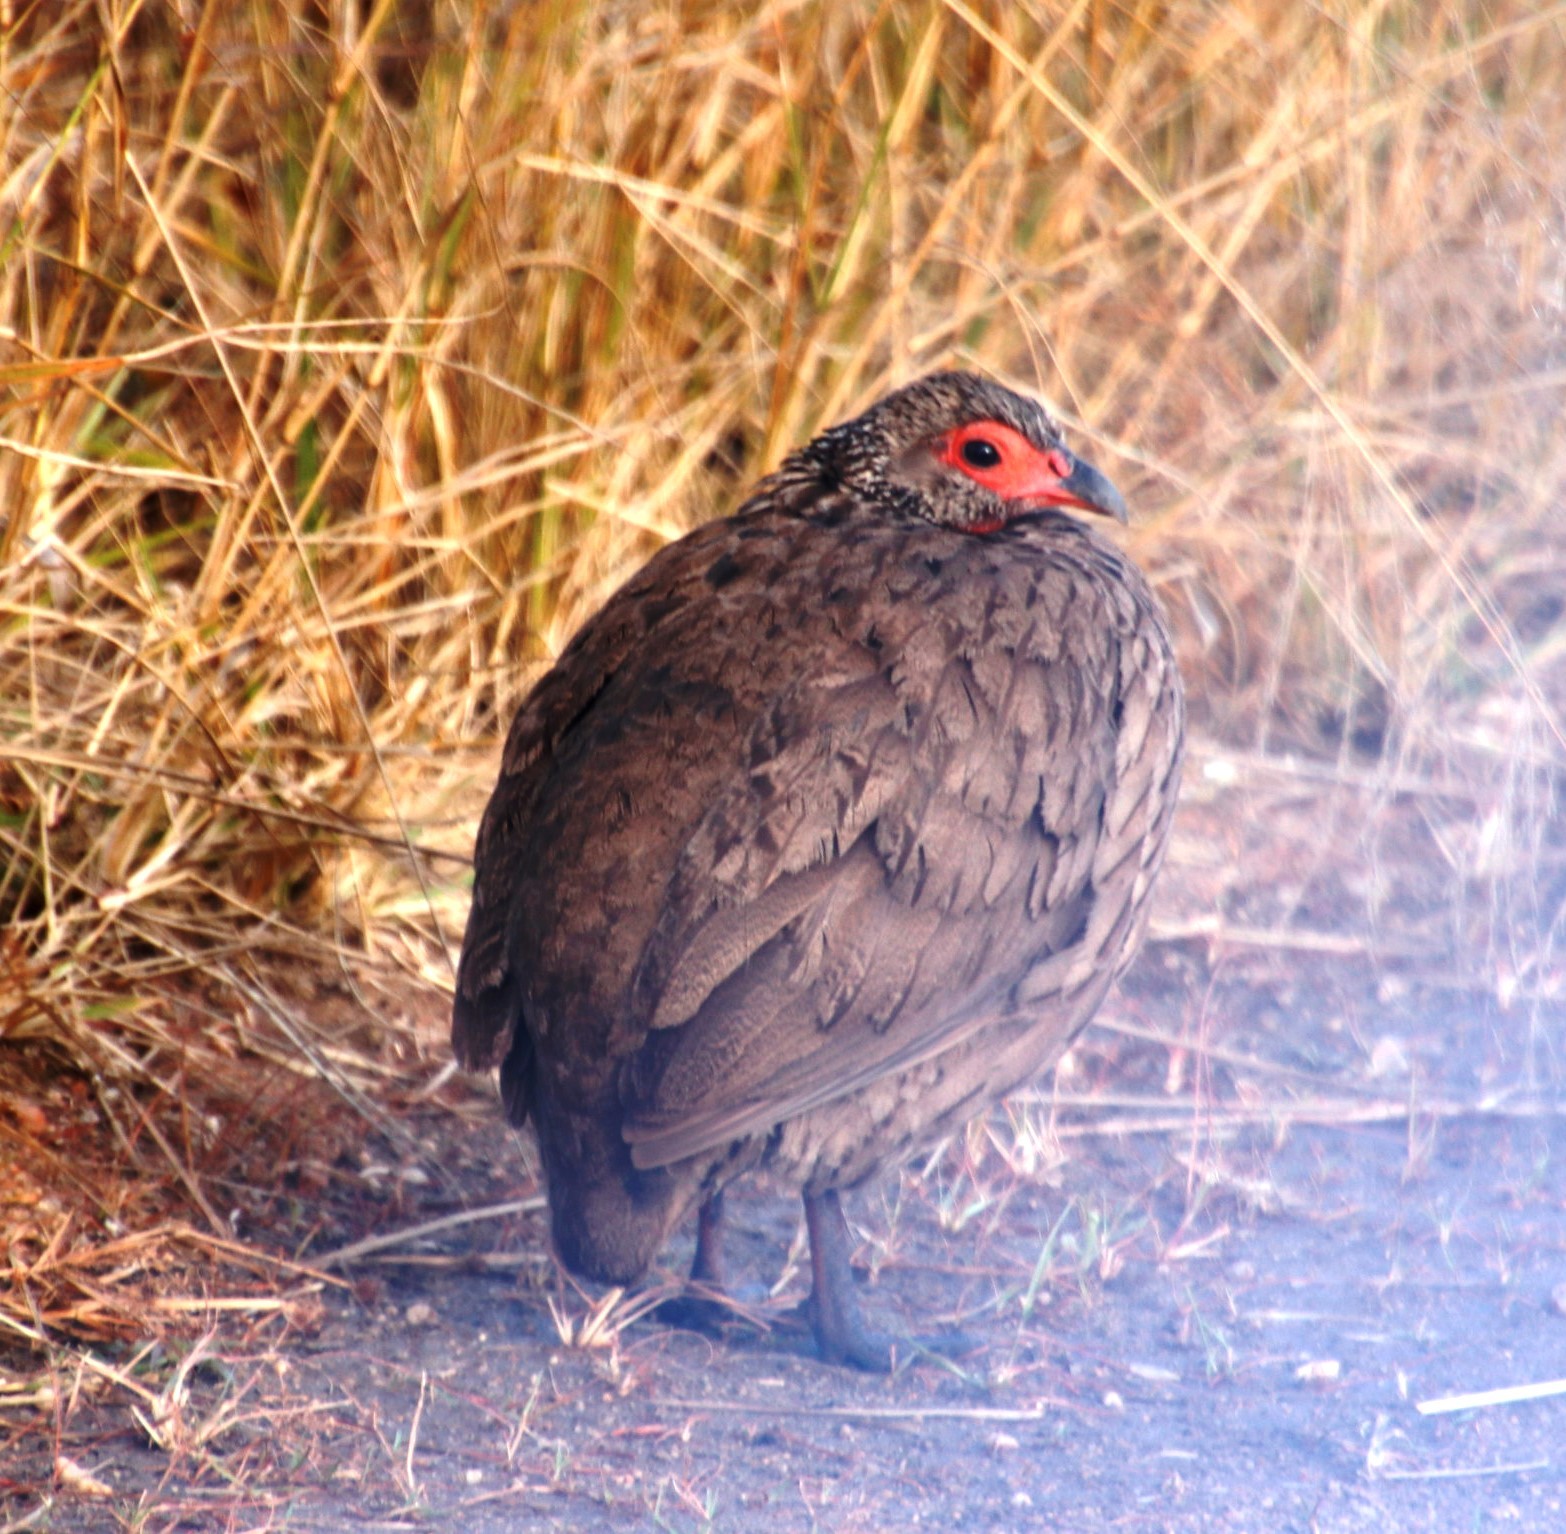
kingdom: Animalia
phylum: Chordata
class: Aves
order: Galliformes
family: Phasianidae
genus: Pternistis
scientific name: Pternistis swainsonii
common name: Swainson's spurfowl
